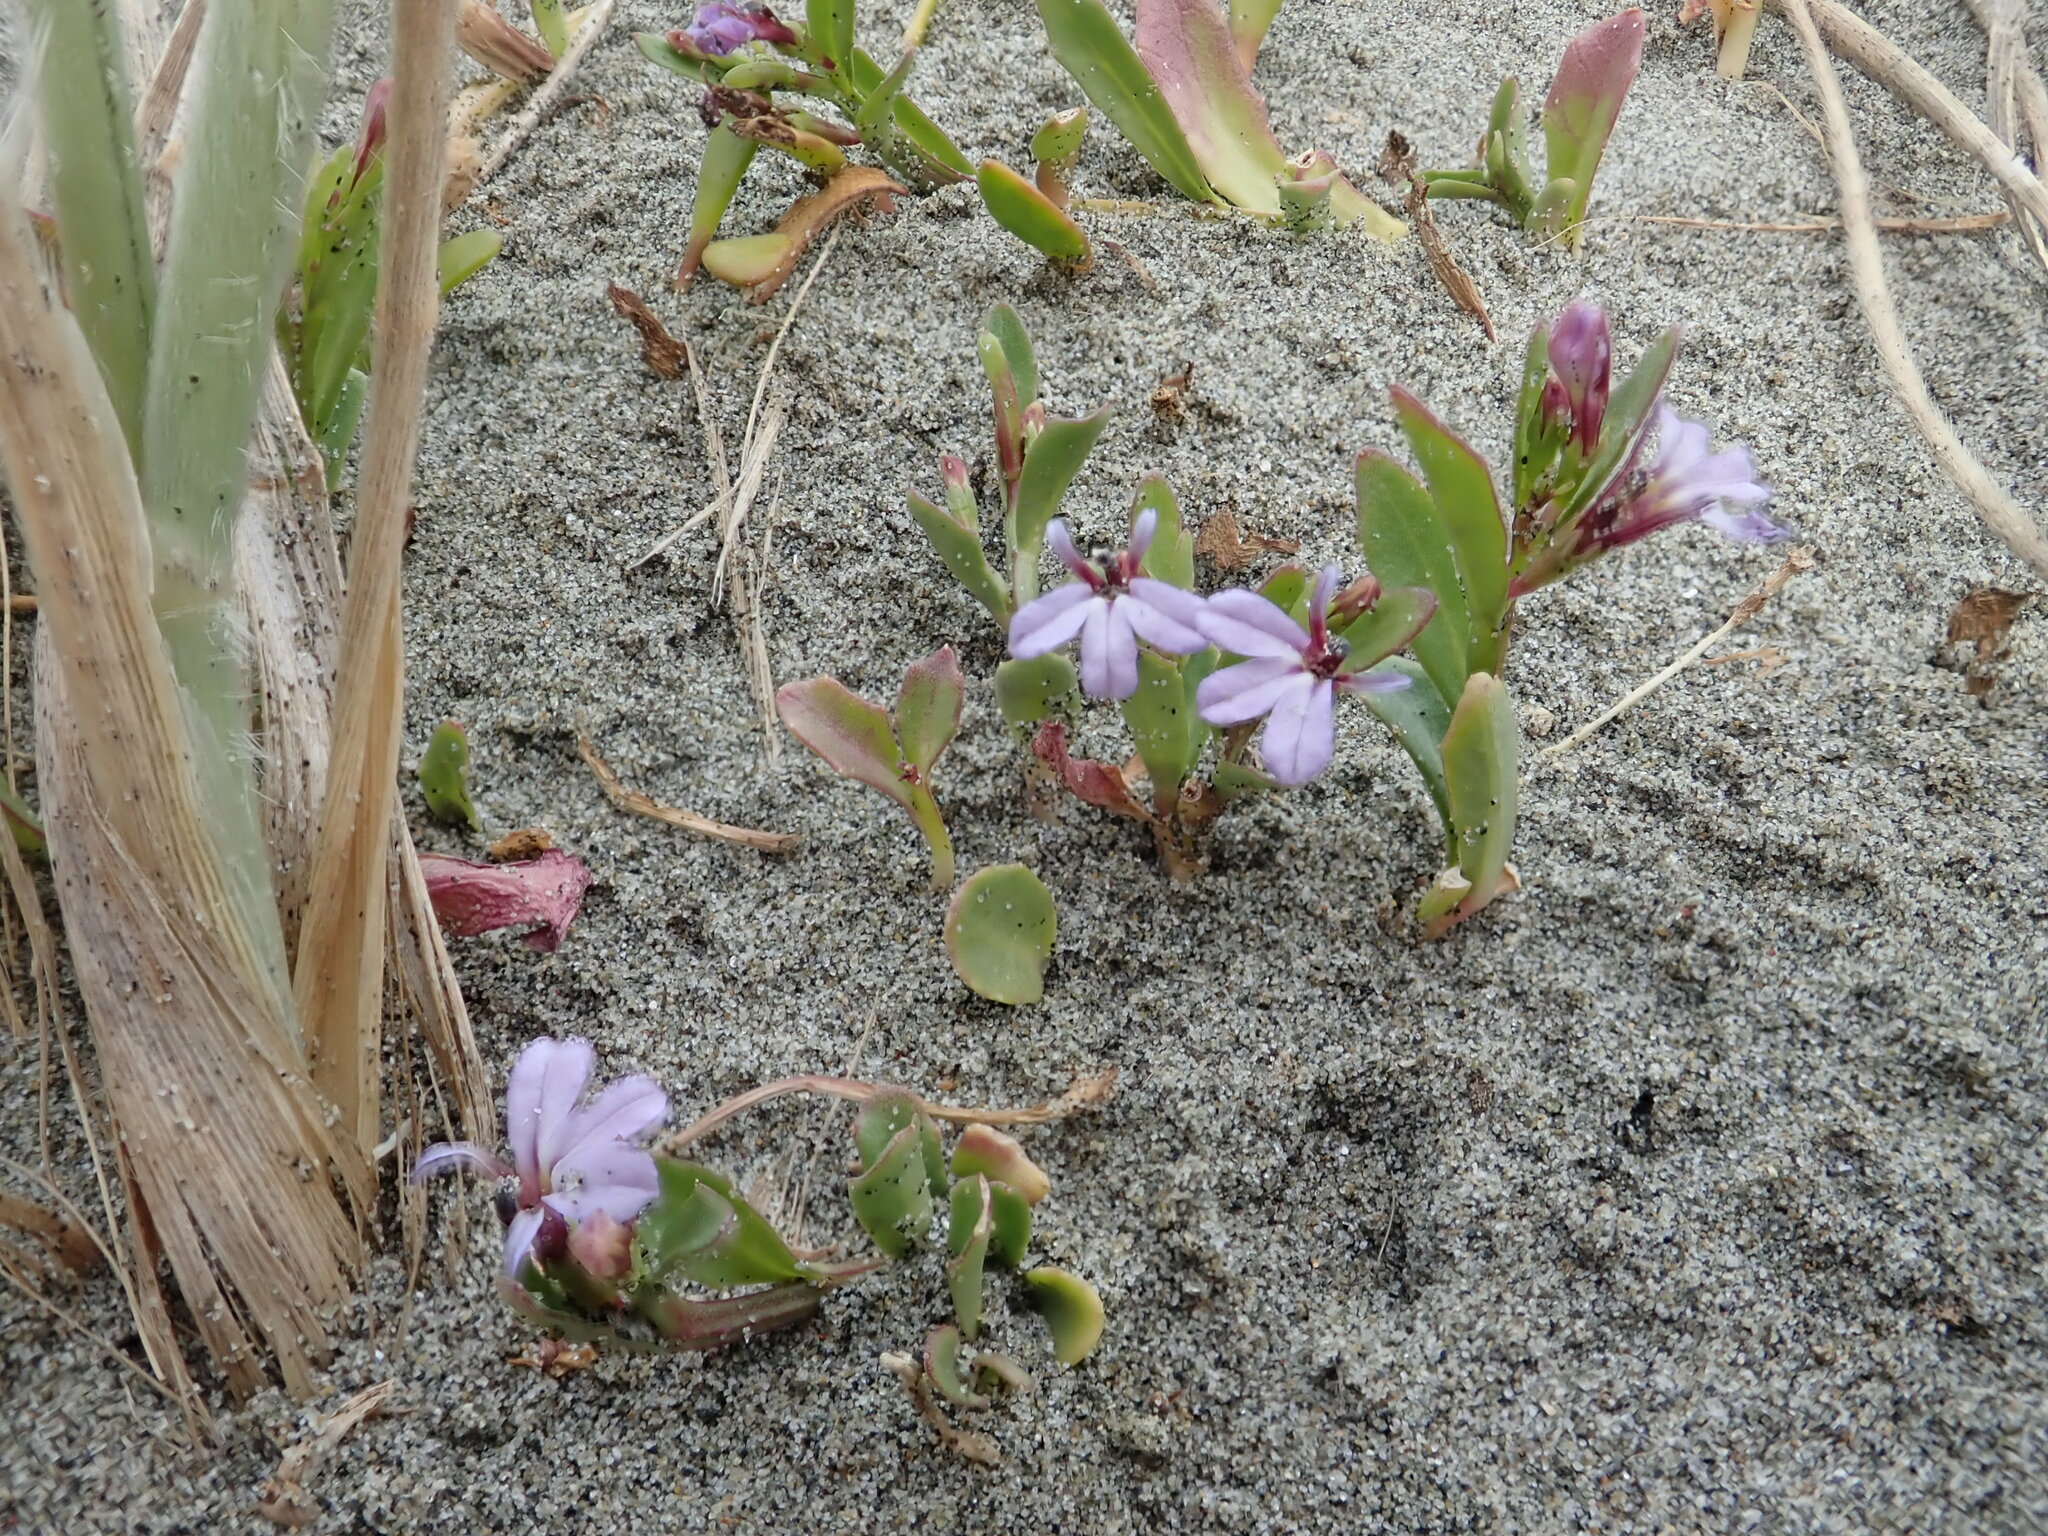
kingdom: Plantae
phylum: Tracheophyta
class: Magnoliopsida
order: Asterales
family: Campanulaceae
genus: Lobelia
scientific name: Lobelia anceps
